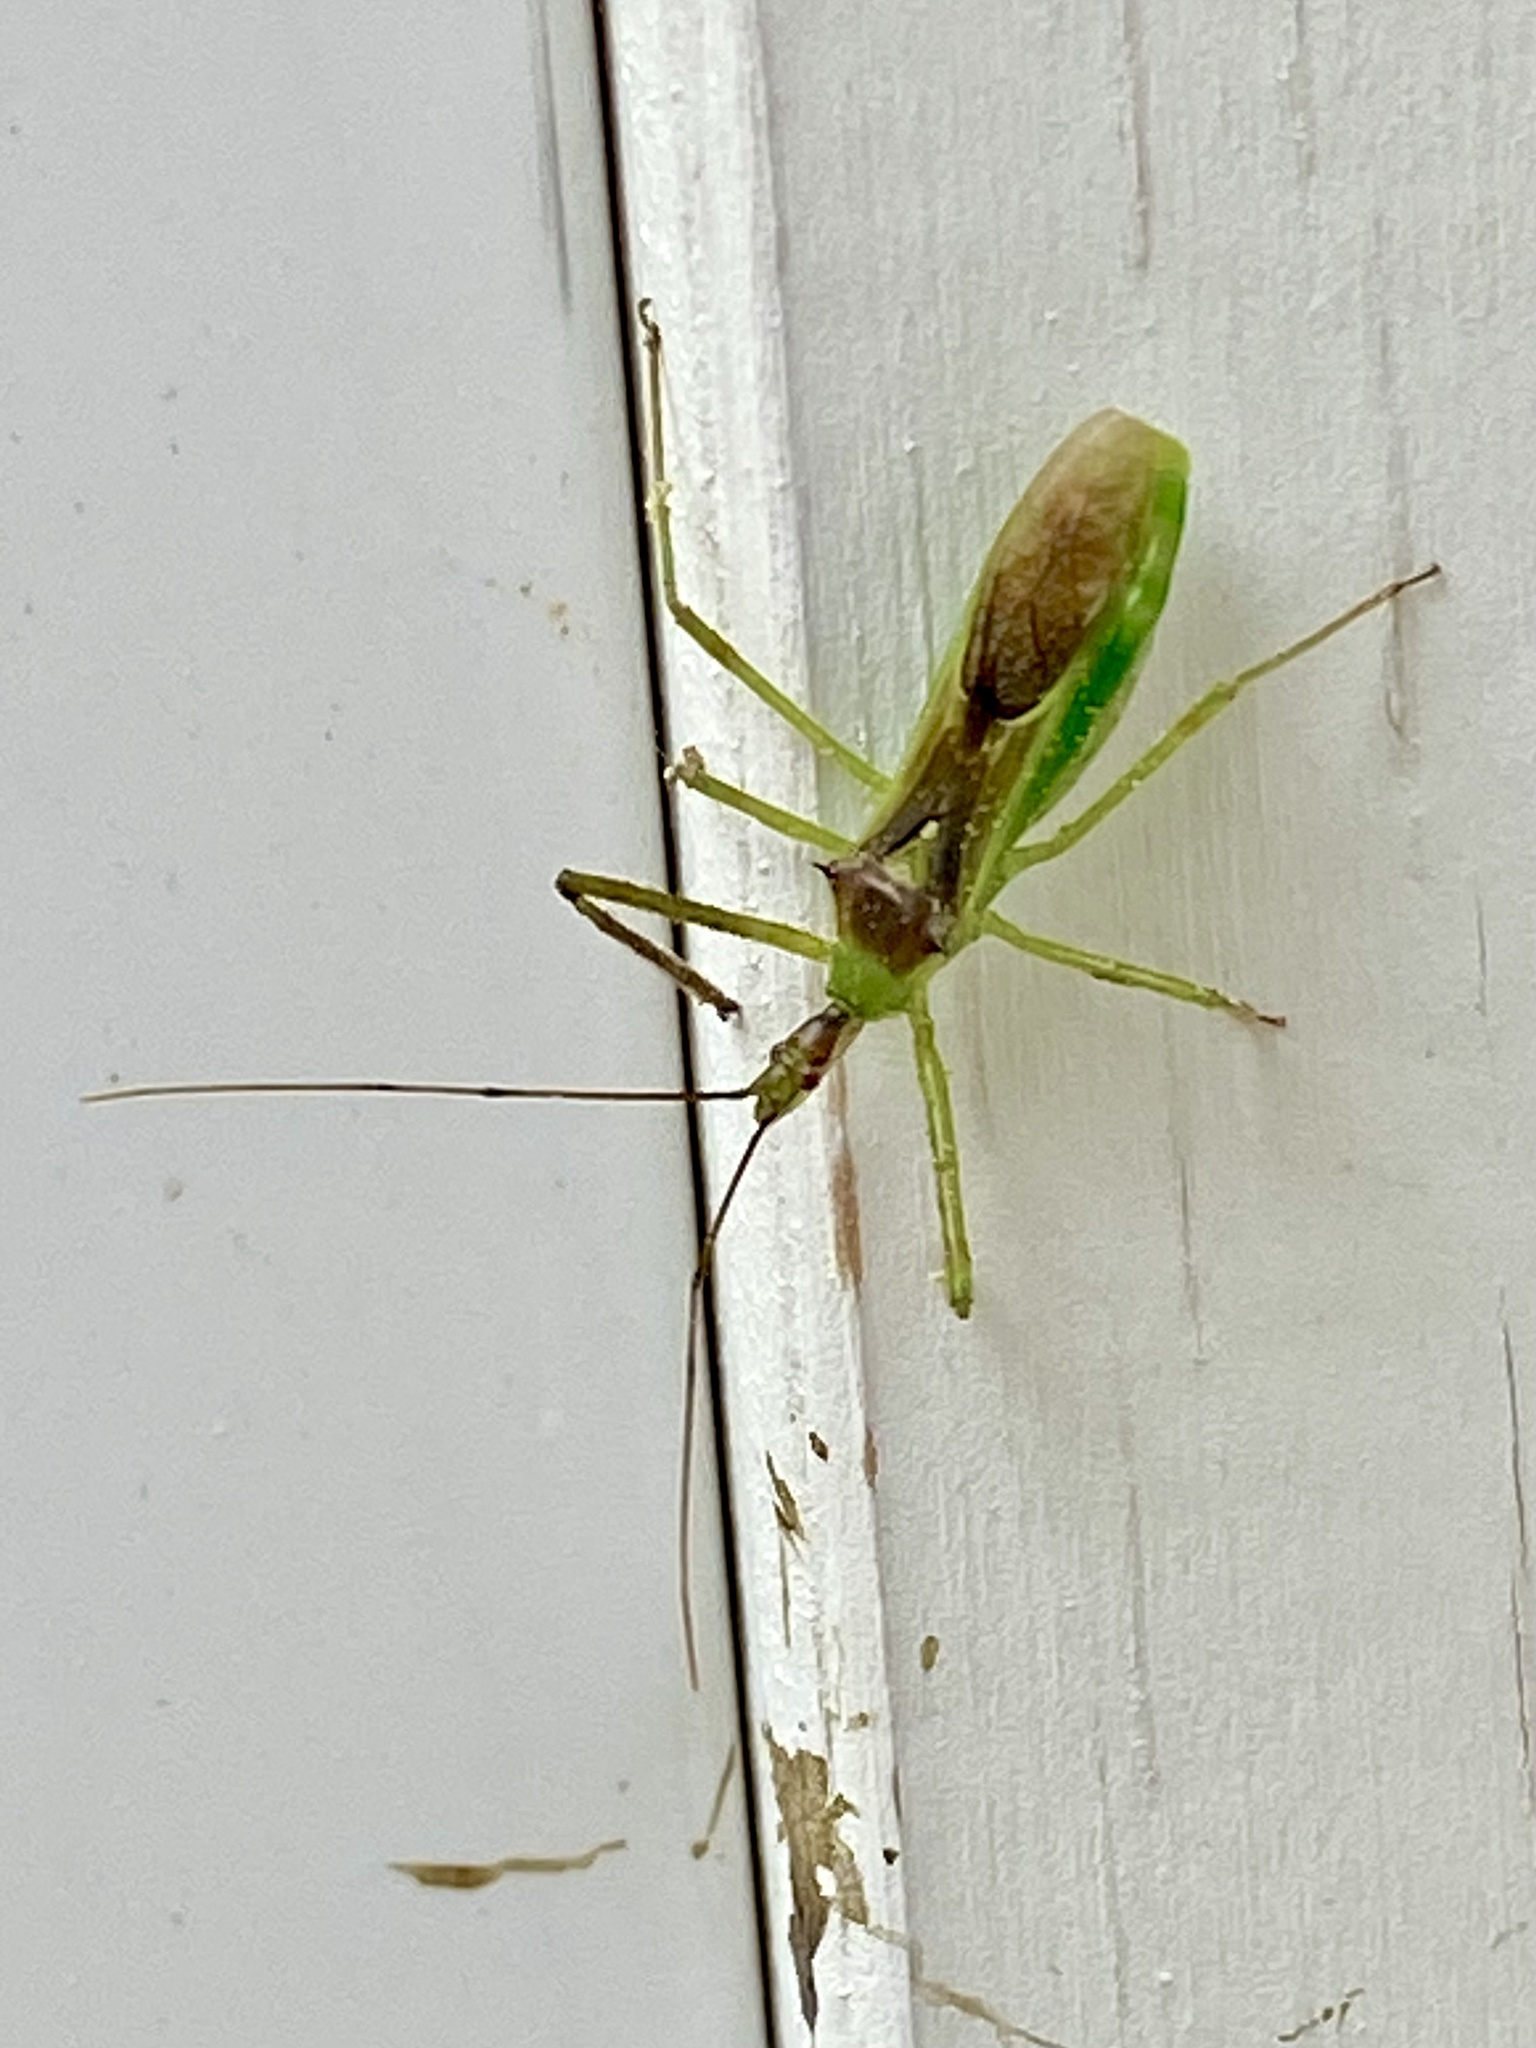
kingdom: Animalia
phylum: Arthropoda
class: Insecta
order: Hemiptera
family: Reduviidae
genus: Zelus
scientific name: Zelus luridus
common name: Pale green assassin bug
